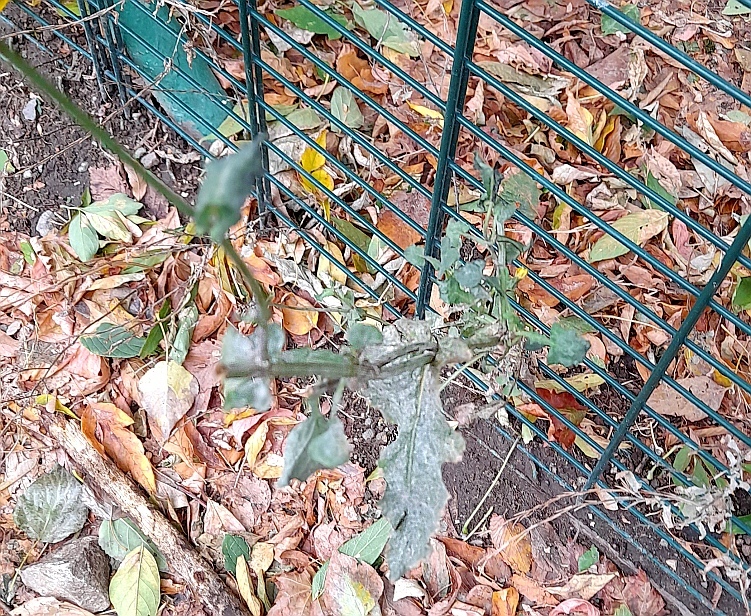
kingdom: Plantae
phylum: Tracheophyta
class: Magnoliopsida
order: Asterales
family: Asteraceae
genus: Sonchus
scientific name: Sonchus oleraceus
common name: Common sowthistle
